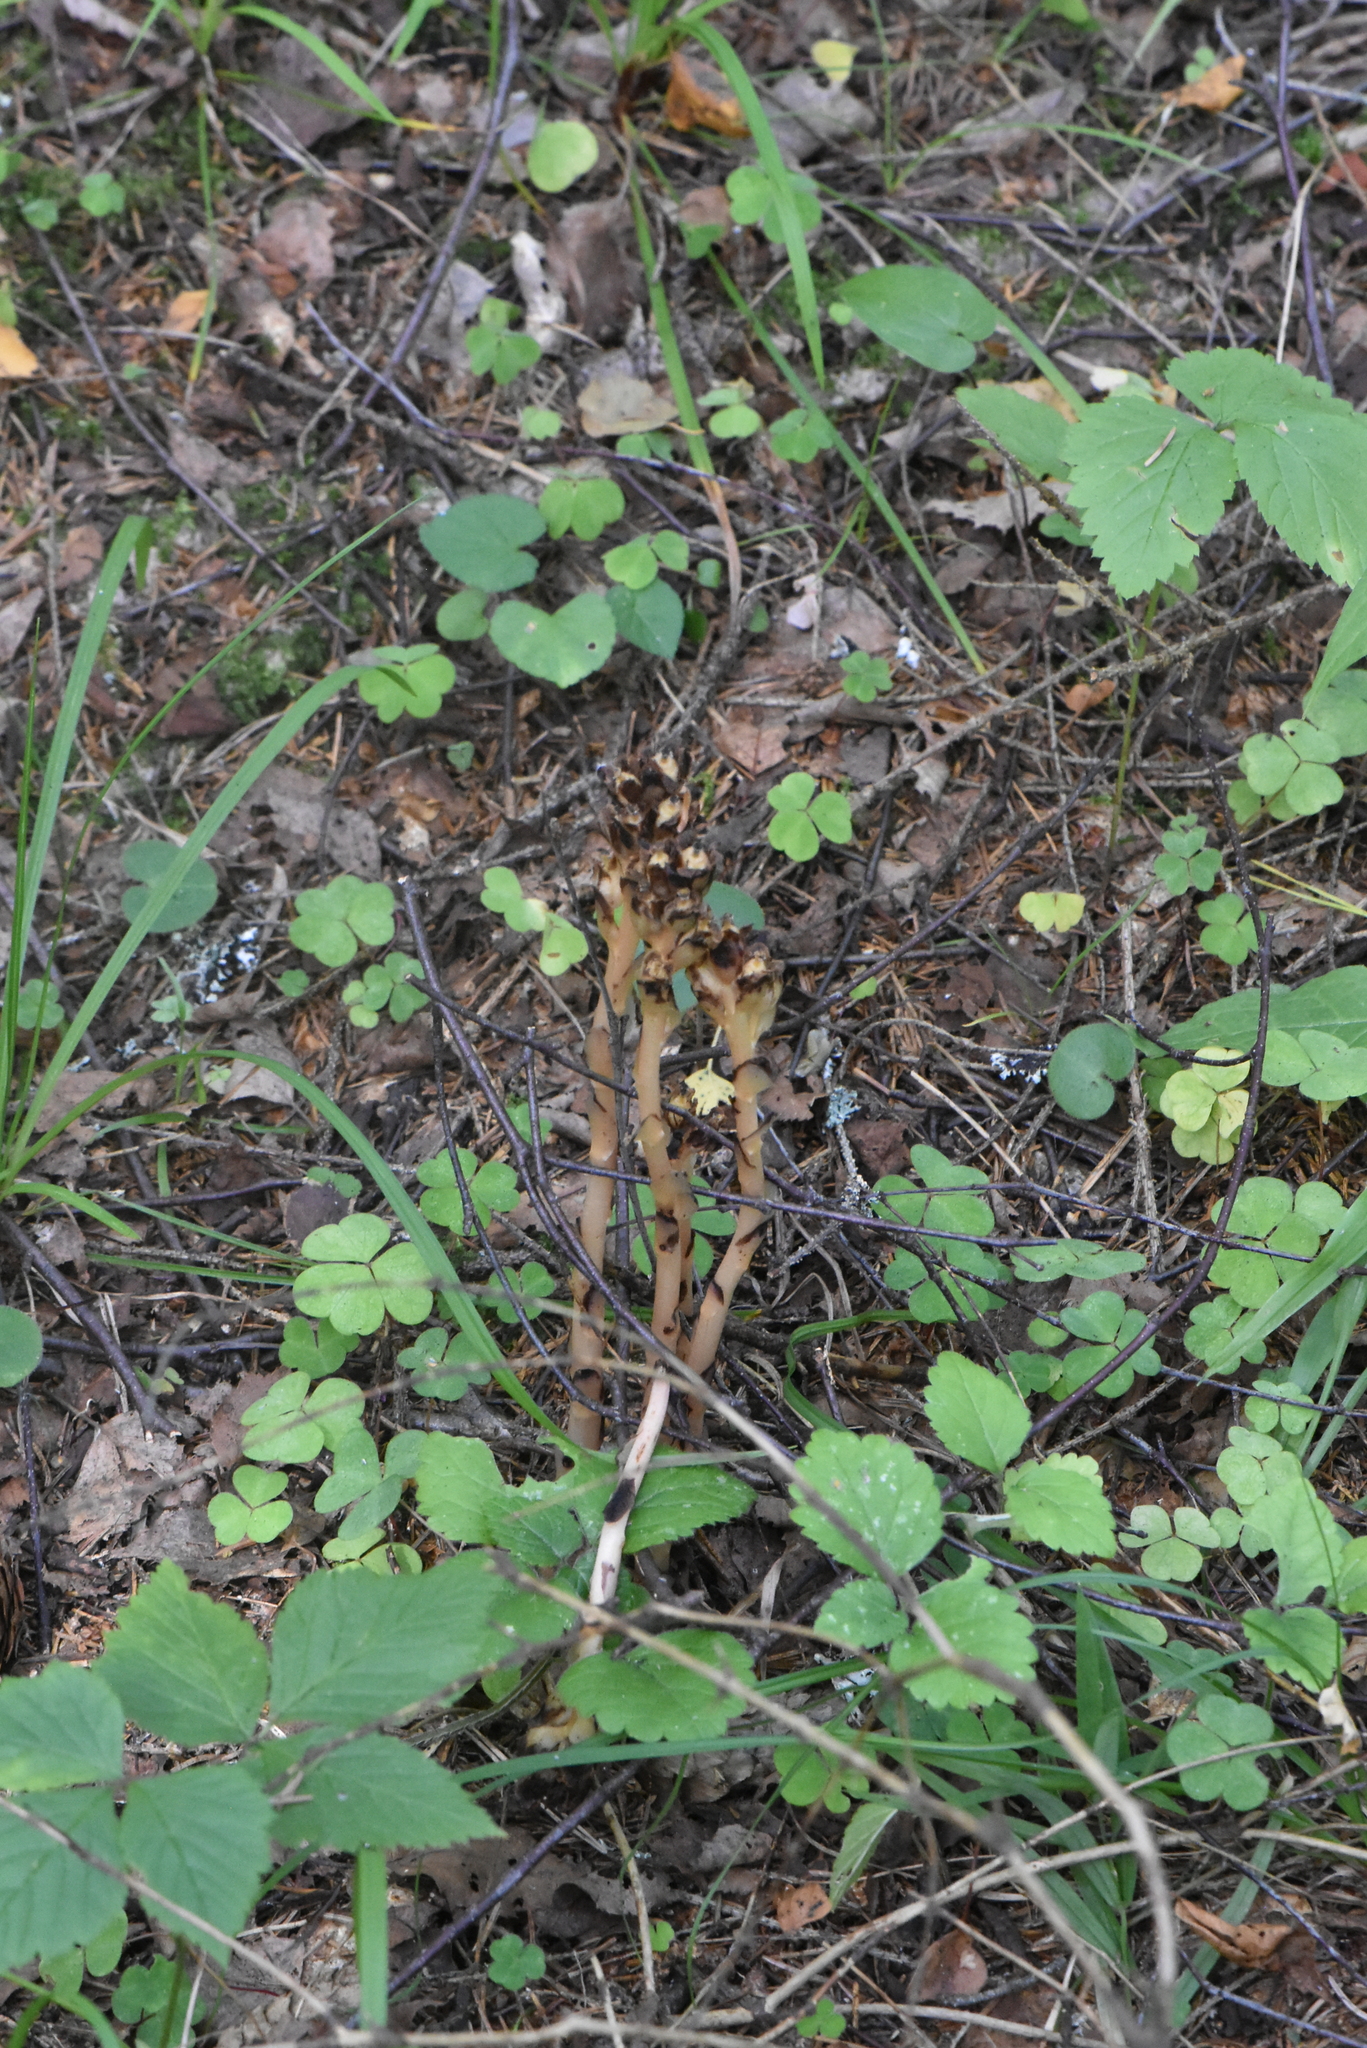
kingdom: Plantae
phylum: Tracheophyta
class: Magnoliopsida
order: Ericales
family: Ericaceae
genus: Hypopitys
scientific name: Hypopitys monotropa
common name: Yellow bird's-nest
